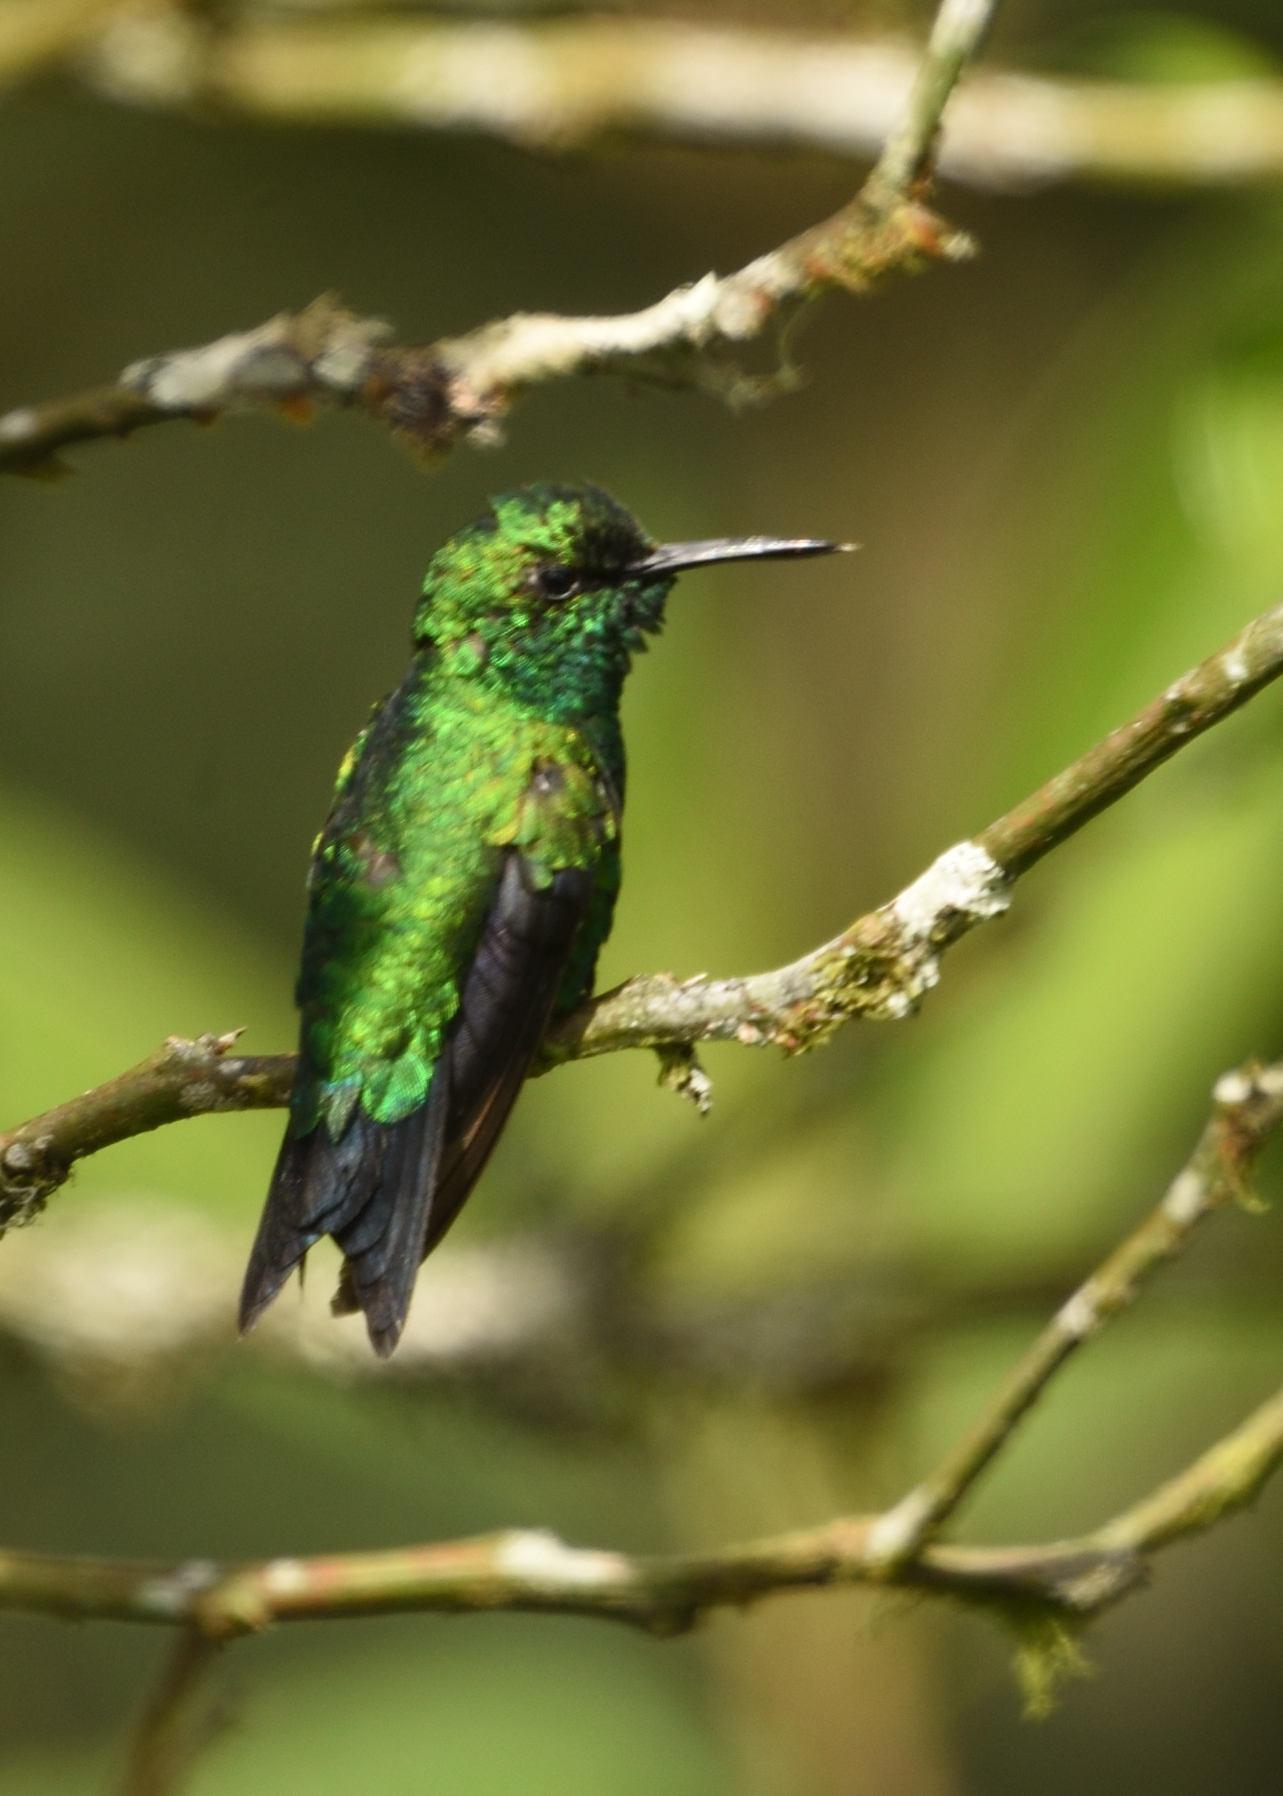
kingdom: Animalia
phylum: Chordata
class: Aves
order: Apodiformes
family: Trochilidae
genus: Saucerottia
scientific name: Saucerottia saucerottei
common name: Steely-vented hummingbird
